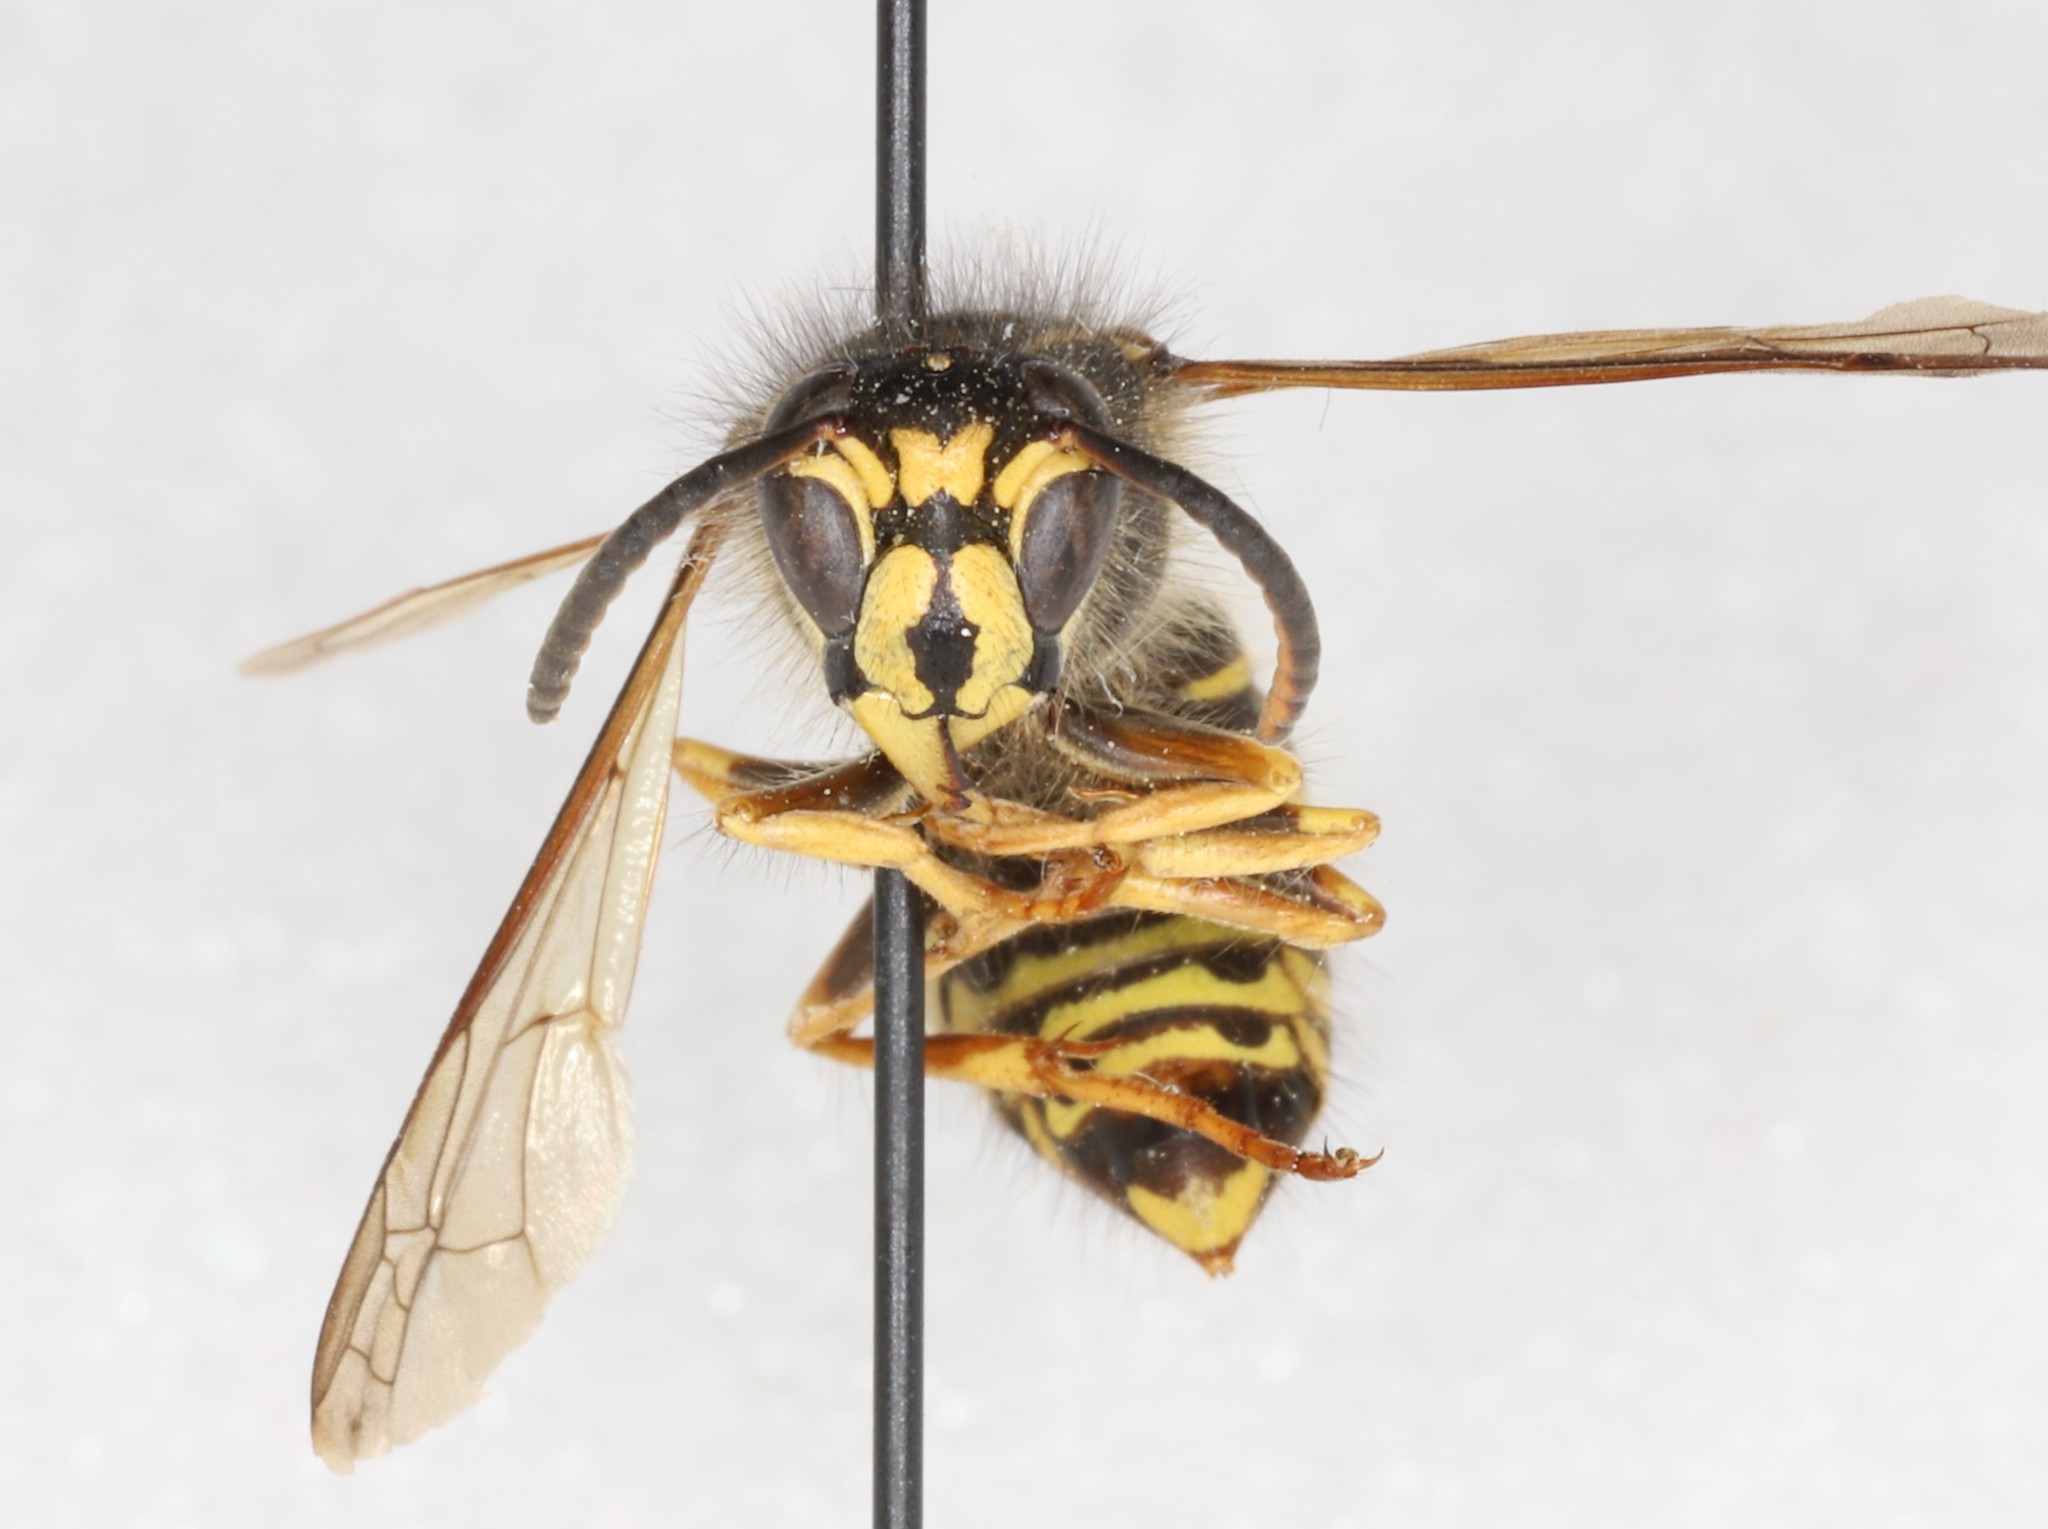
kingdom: Animalia
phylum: Arthropoda
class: Insecta
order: Hymenoptera
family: Vespidae
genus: Dolichovespula
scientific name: Dolichovespula norvegicoides
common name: Northern aerial yellowjacket
